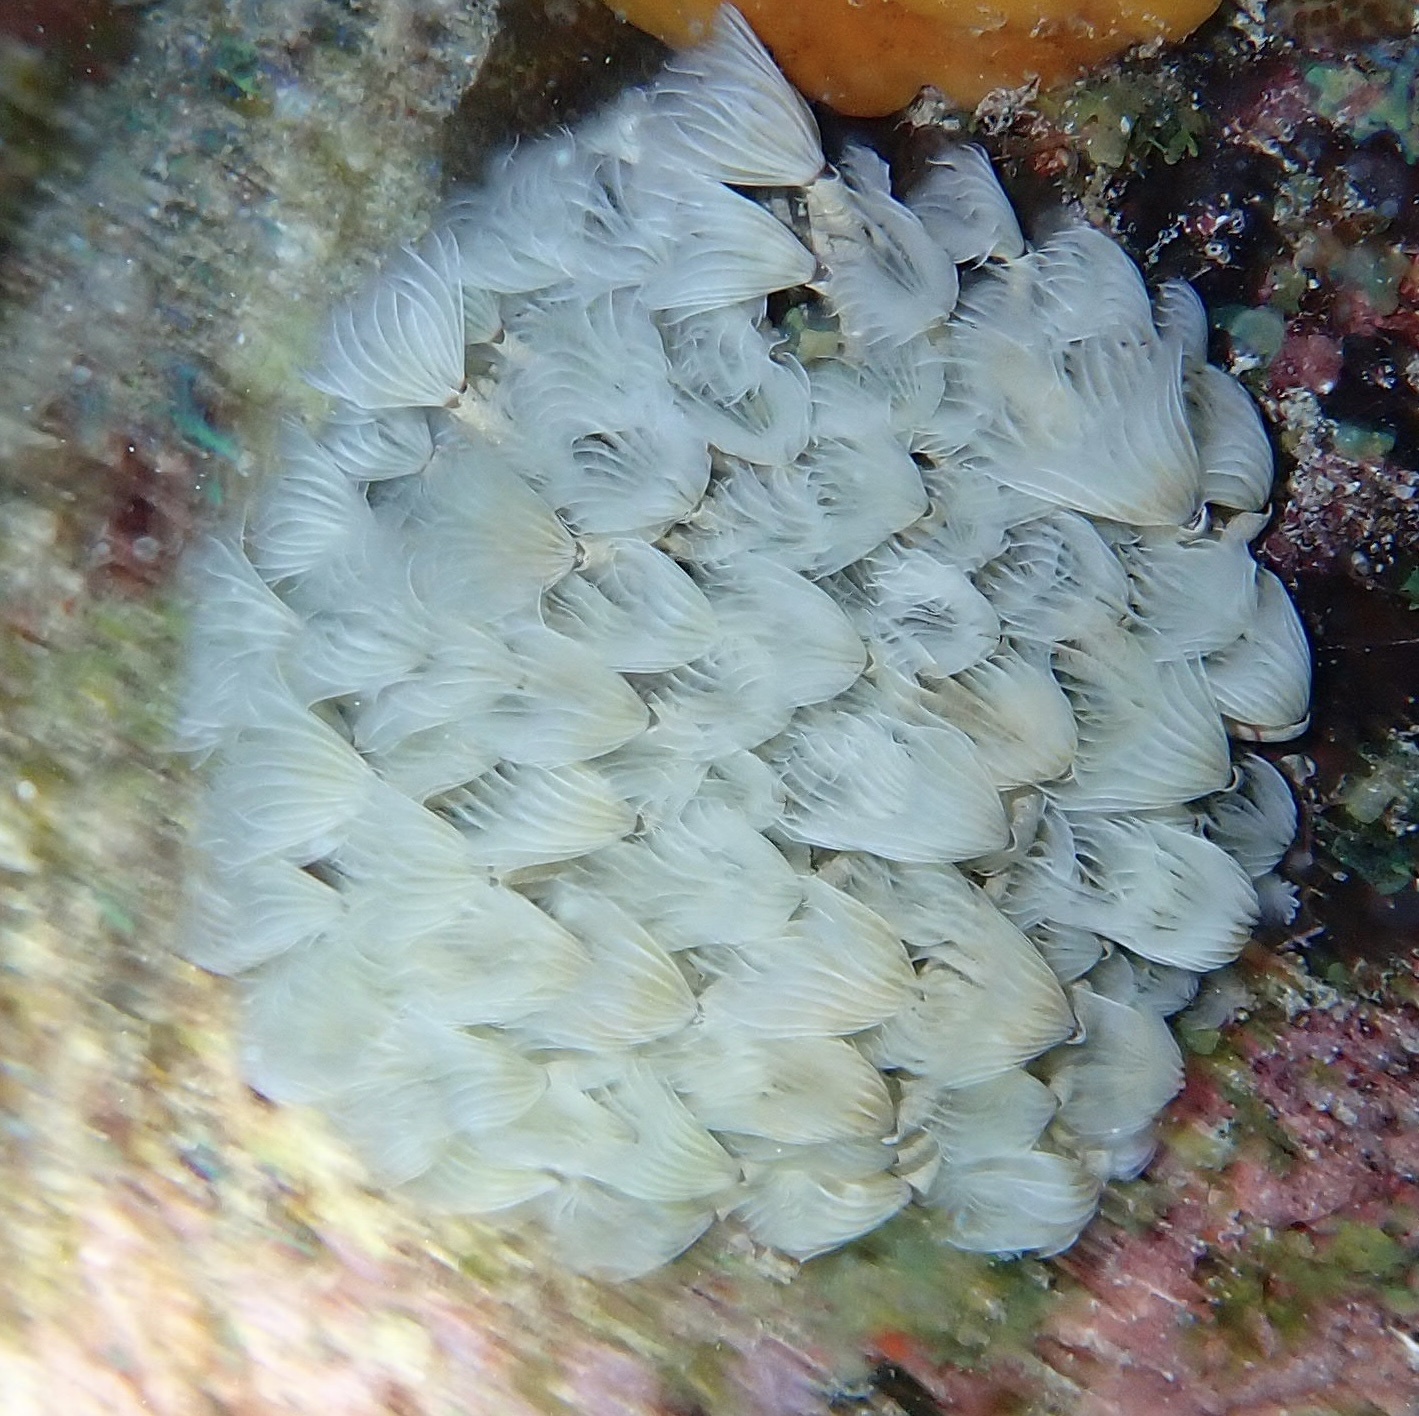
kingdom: Animalia
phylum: Annelida
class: Polychaeta
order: Sabellida
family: Sabellidae
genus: Bispira
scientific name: Bispira brunnea
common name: Social feather duster
